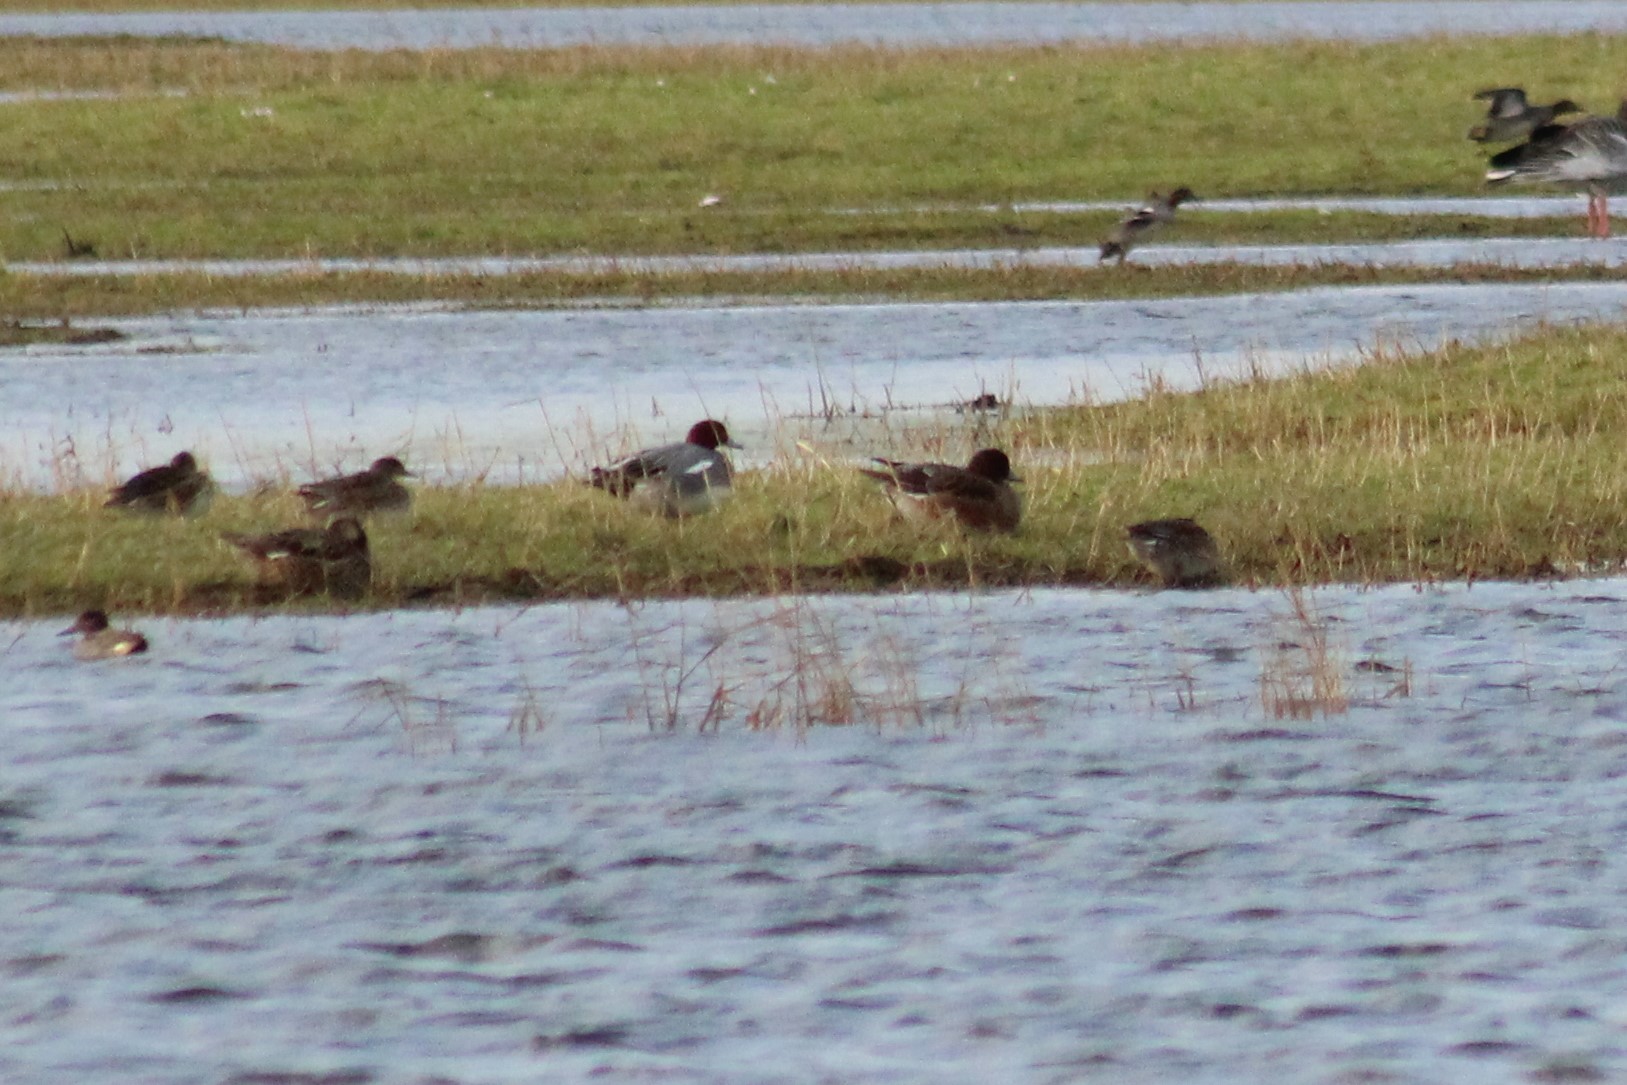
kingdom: Animalia
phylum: Chordata
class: Aves
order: Anseriformes
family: Anatidae
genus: Mareca
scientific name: Mareca penelope
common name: Eurasian wigeon
